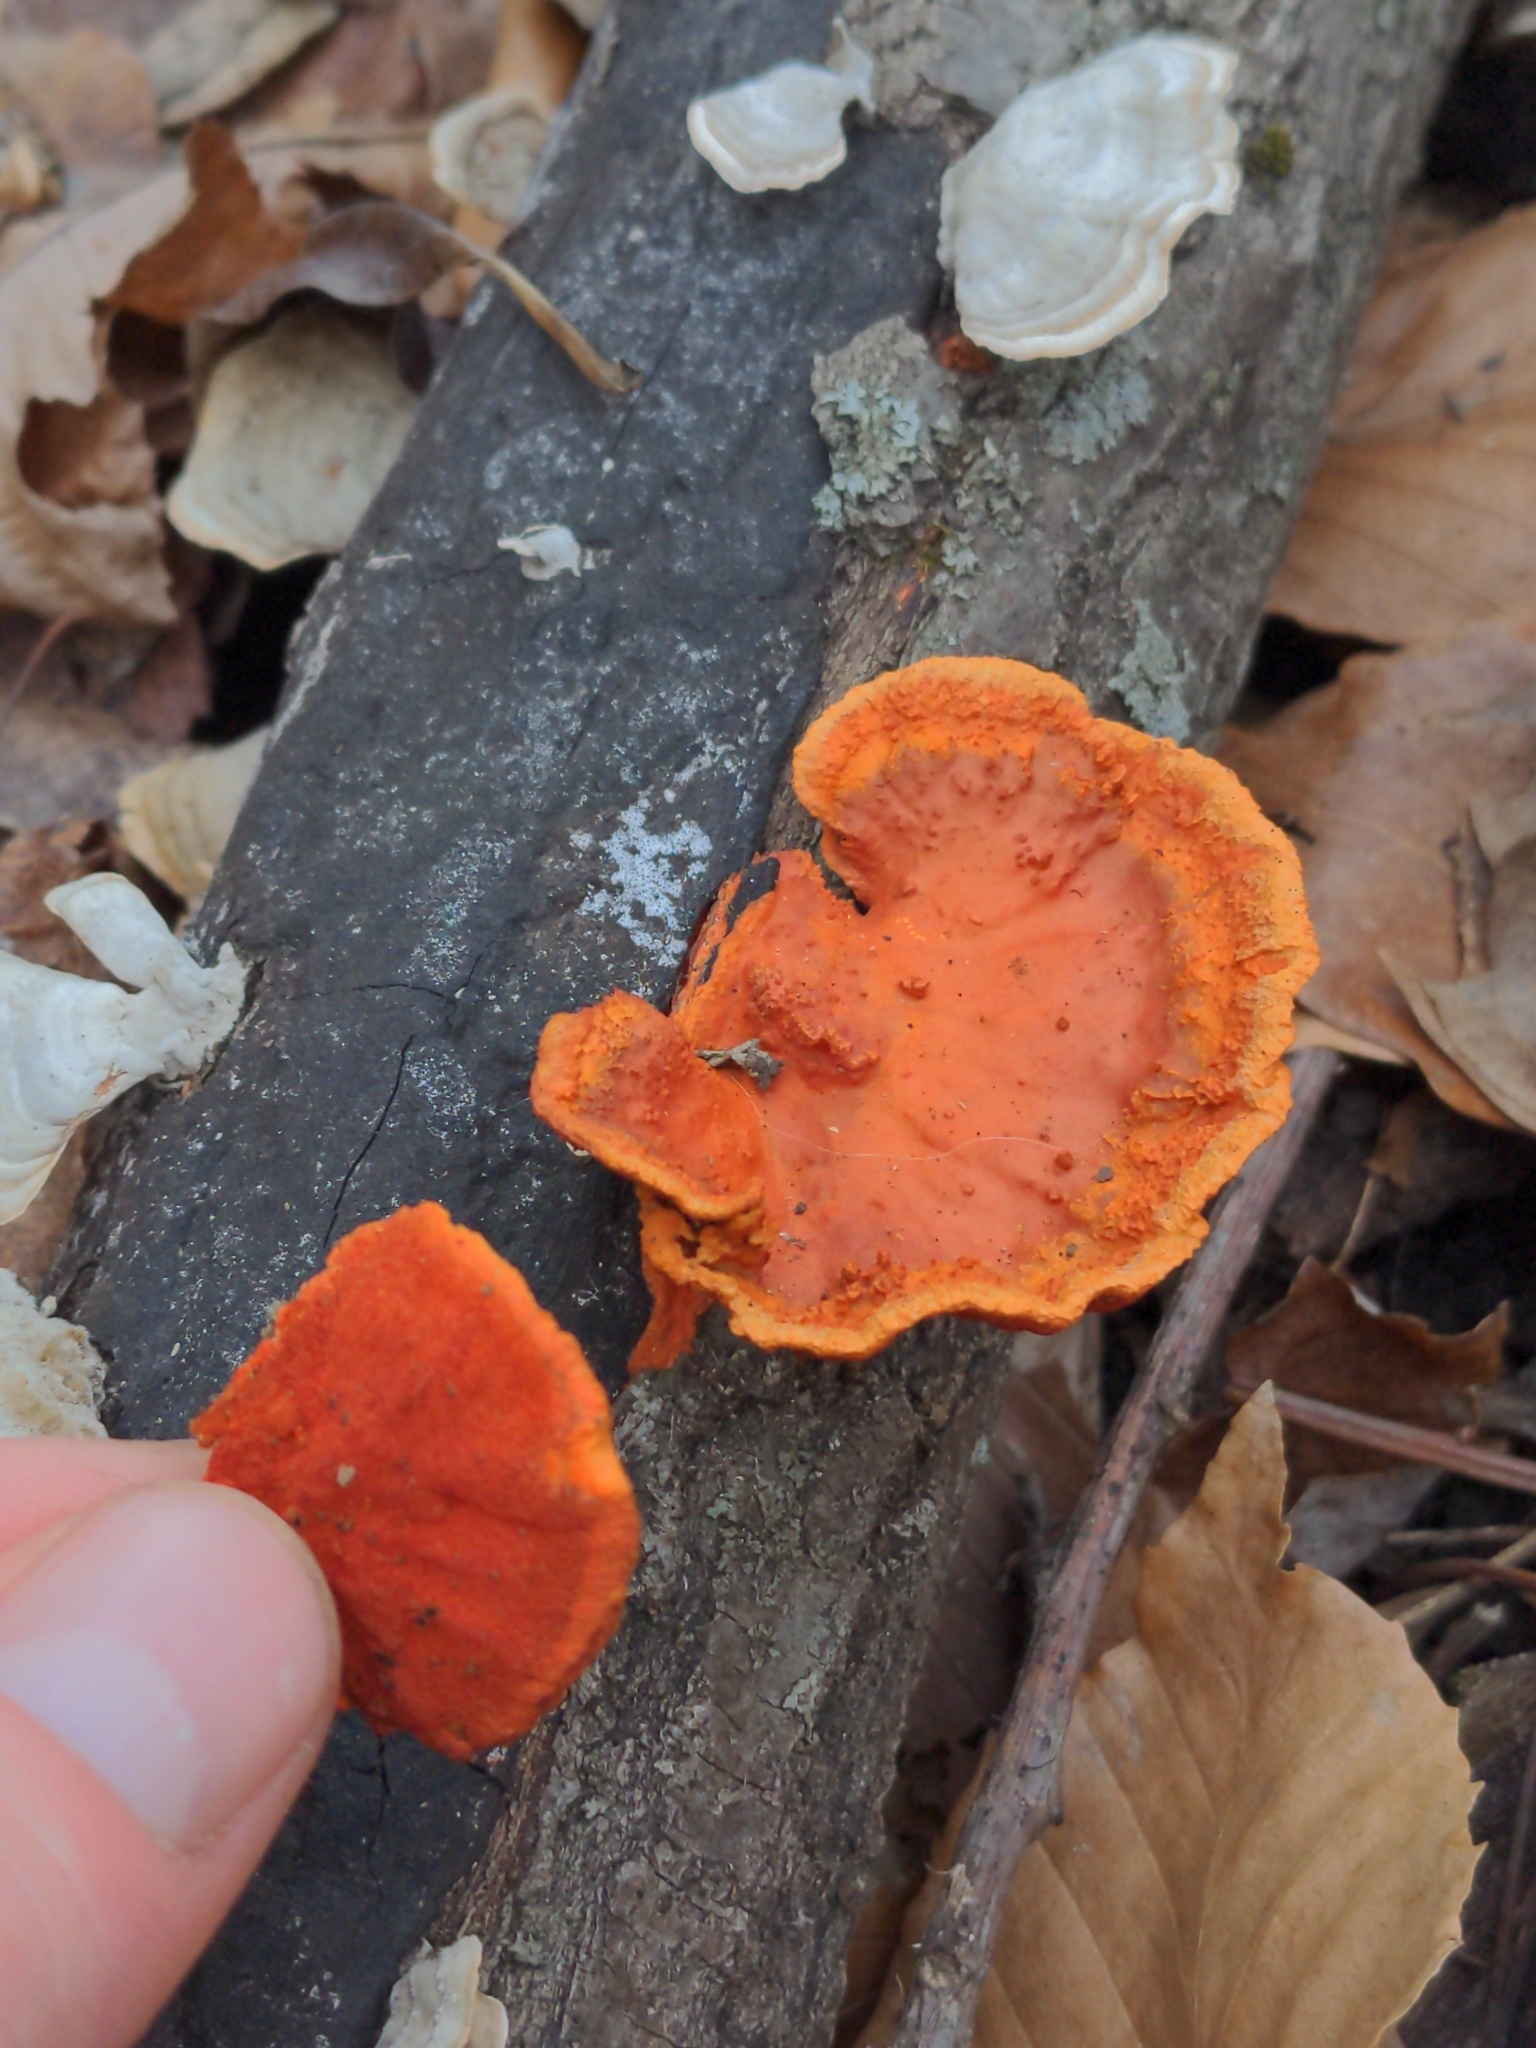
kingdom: Fungi
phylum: Basidiomycota
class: Agaricomycetes
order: Polyporales
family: Polyporaceae
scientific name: Polyporaceae
